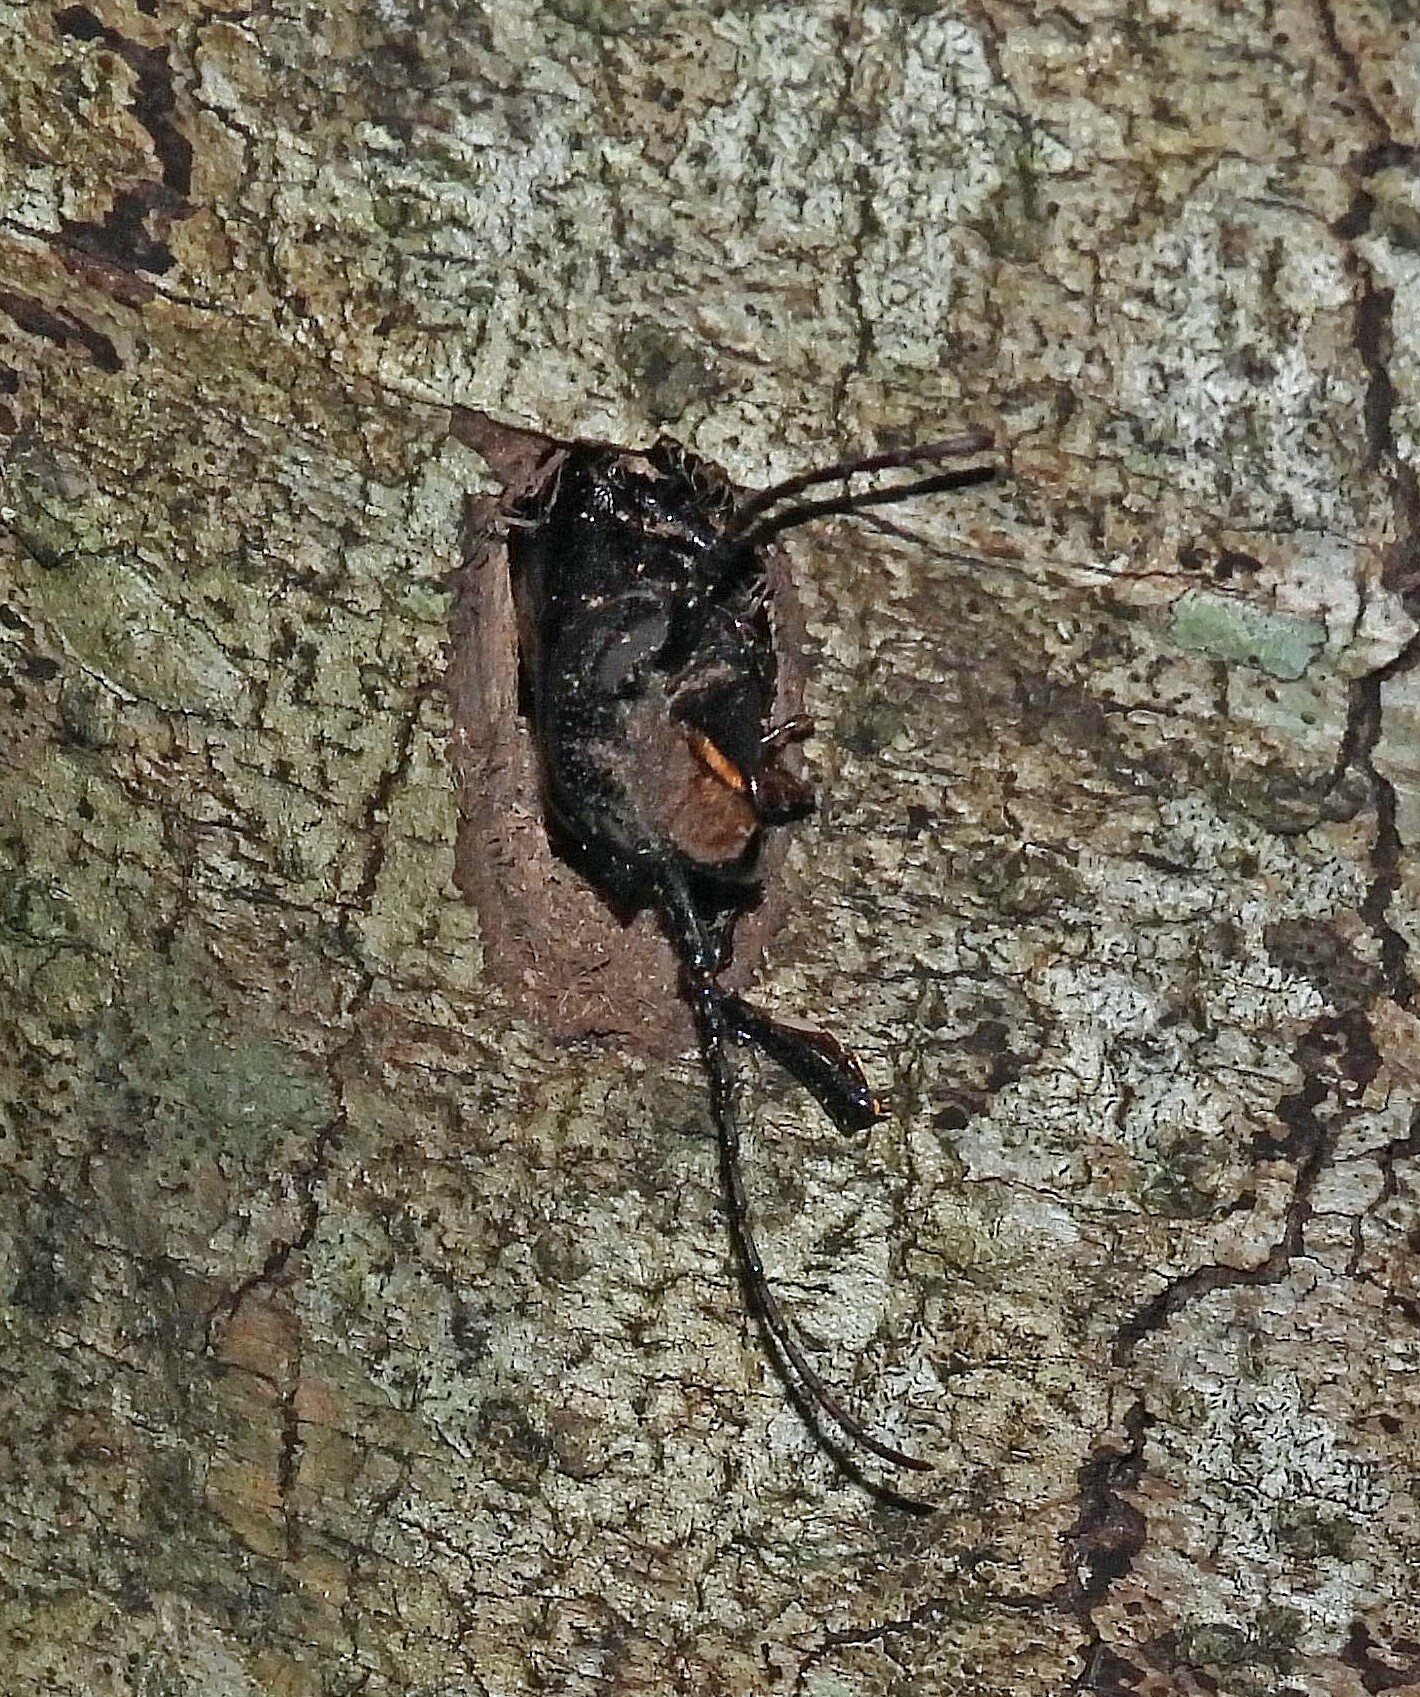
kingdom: Animalia
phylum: Arthropoda
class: Insecta
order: Coleoptera
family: Cerambycidae
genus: Mallodon
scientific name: Mallodon dasystomum
